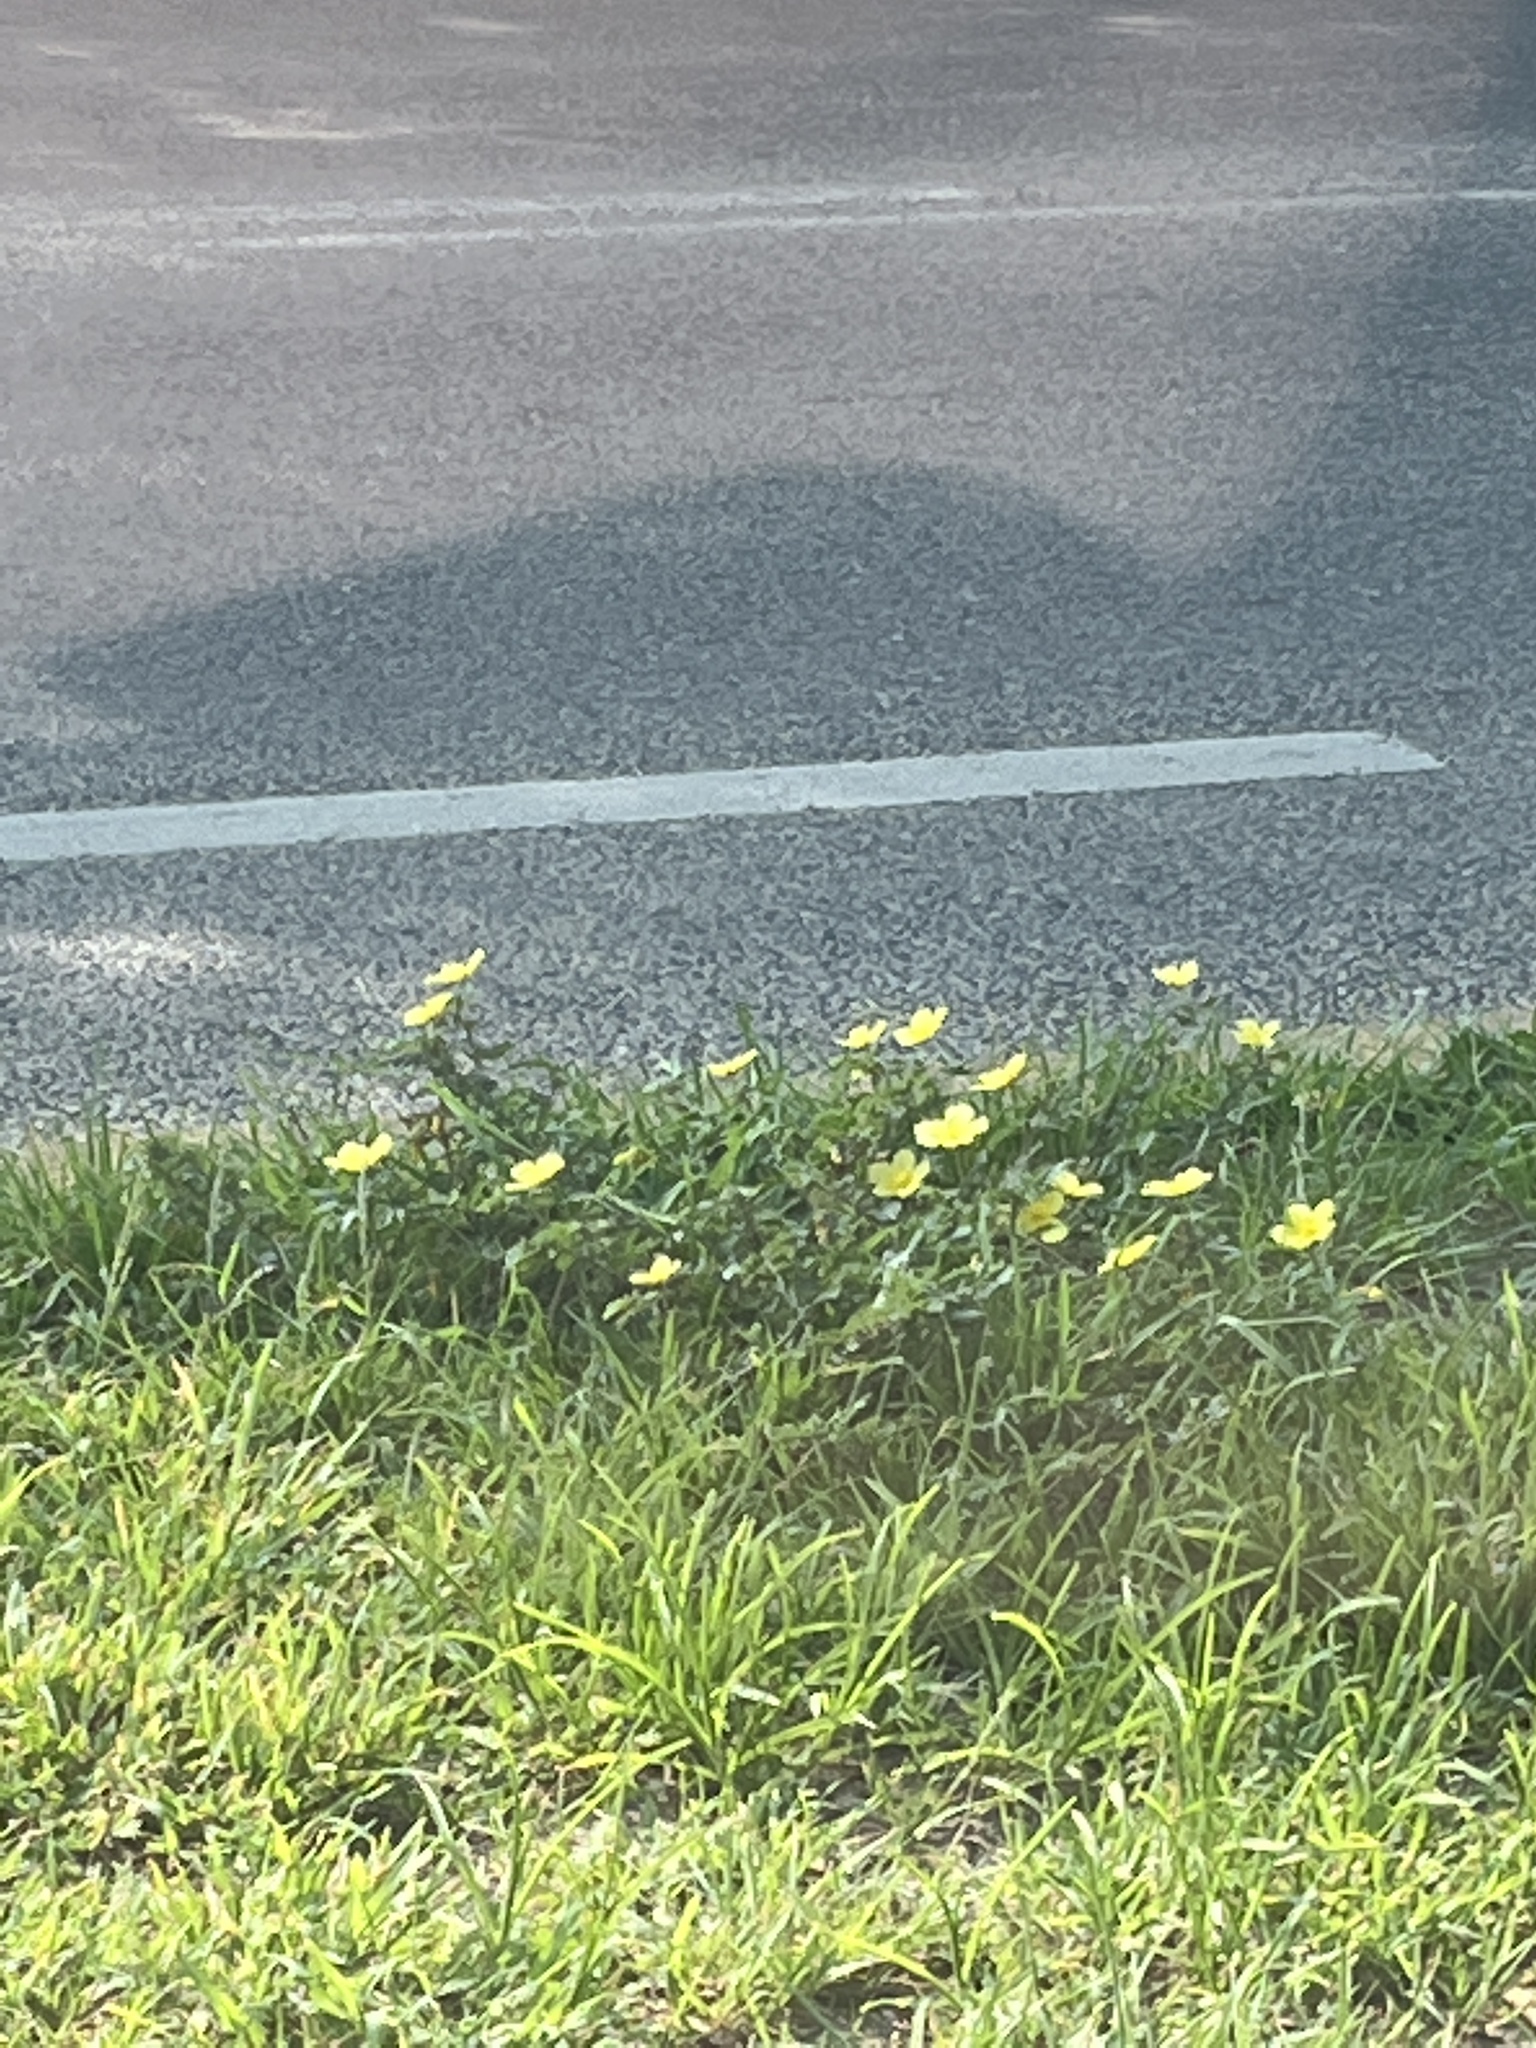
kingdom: Plantae
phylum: Tracheophyta
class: Magnoliopsida
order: Zygophyllales
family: Zygophyllaceae
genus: Tribulus
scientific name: Tribulus cistoides
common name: Jamaican feverplant
